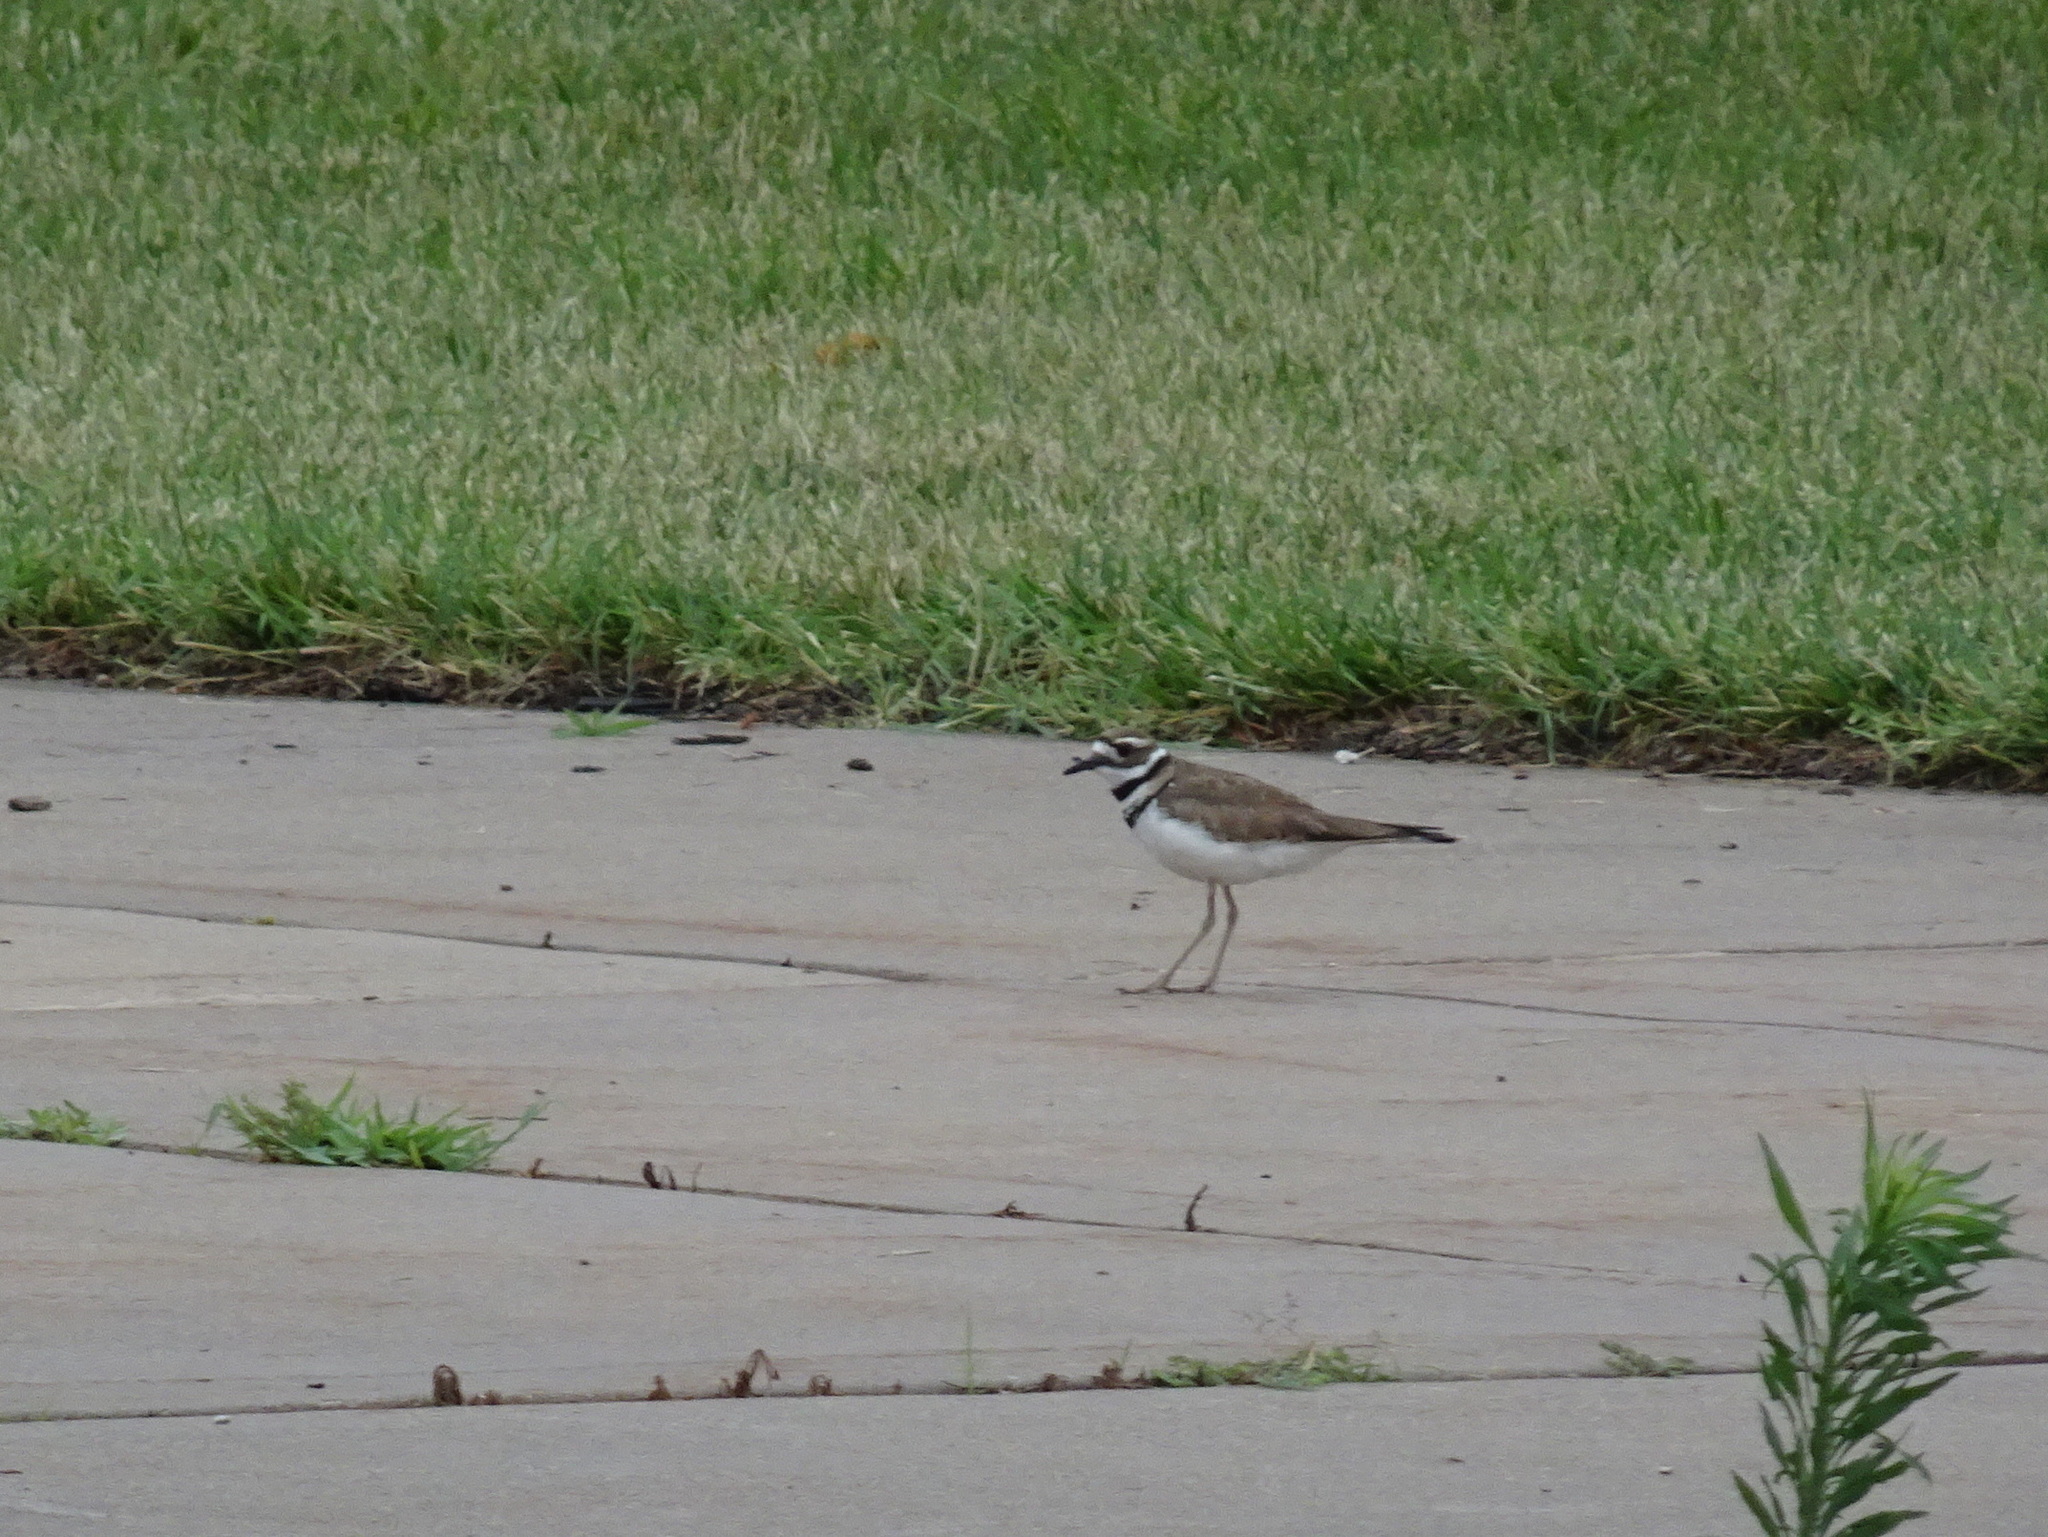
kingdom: Animalia
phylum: Chordata
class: Aves
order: Charadriiformes
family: Charadriidae
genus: Charadrius
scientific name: Charadrius vociferus
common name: Killdeer
